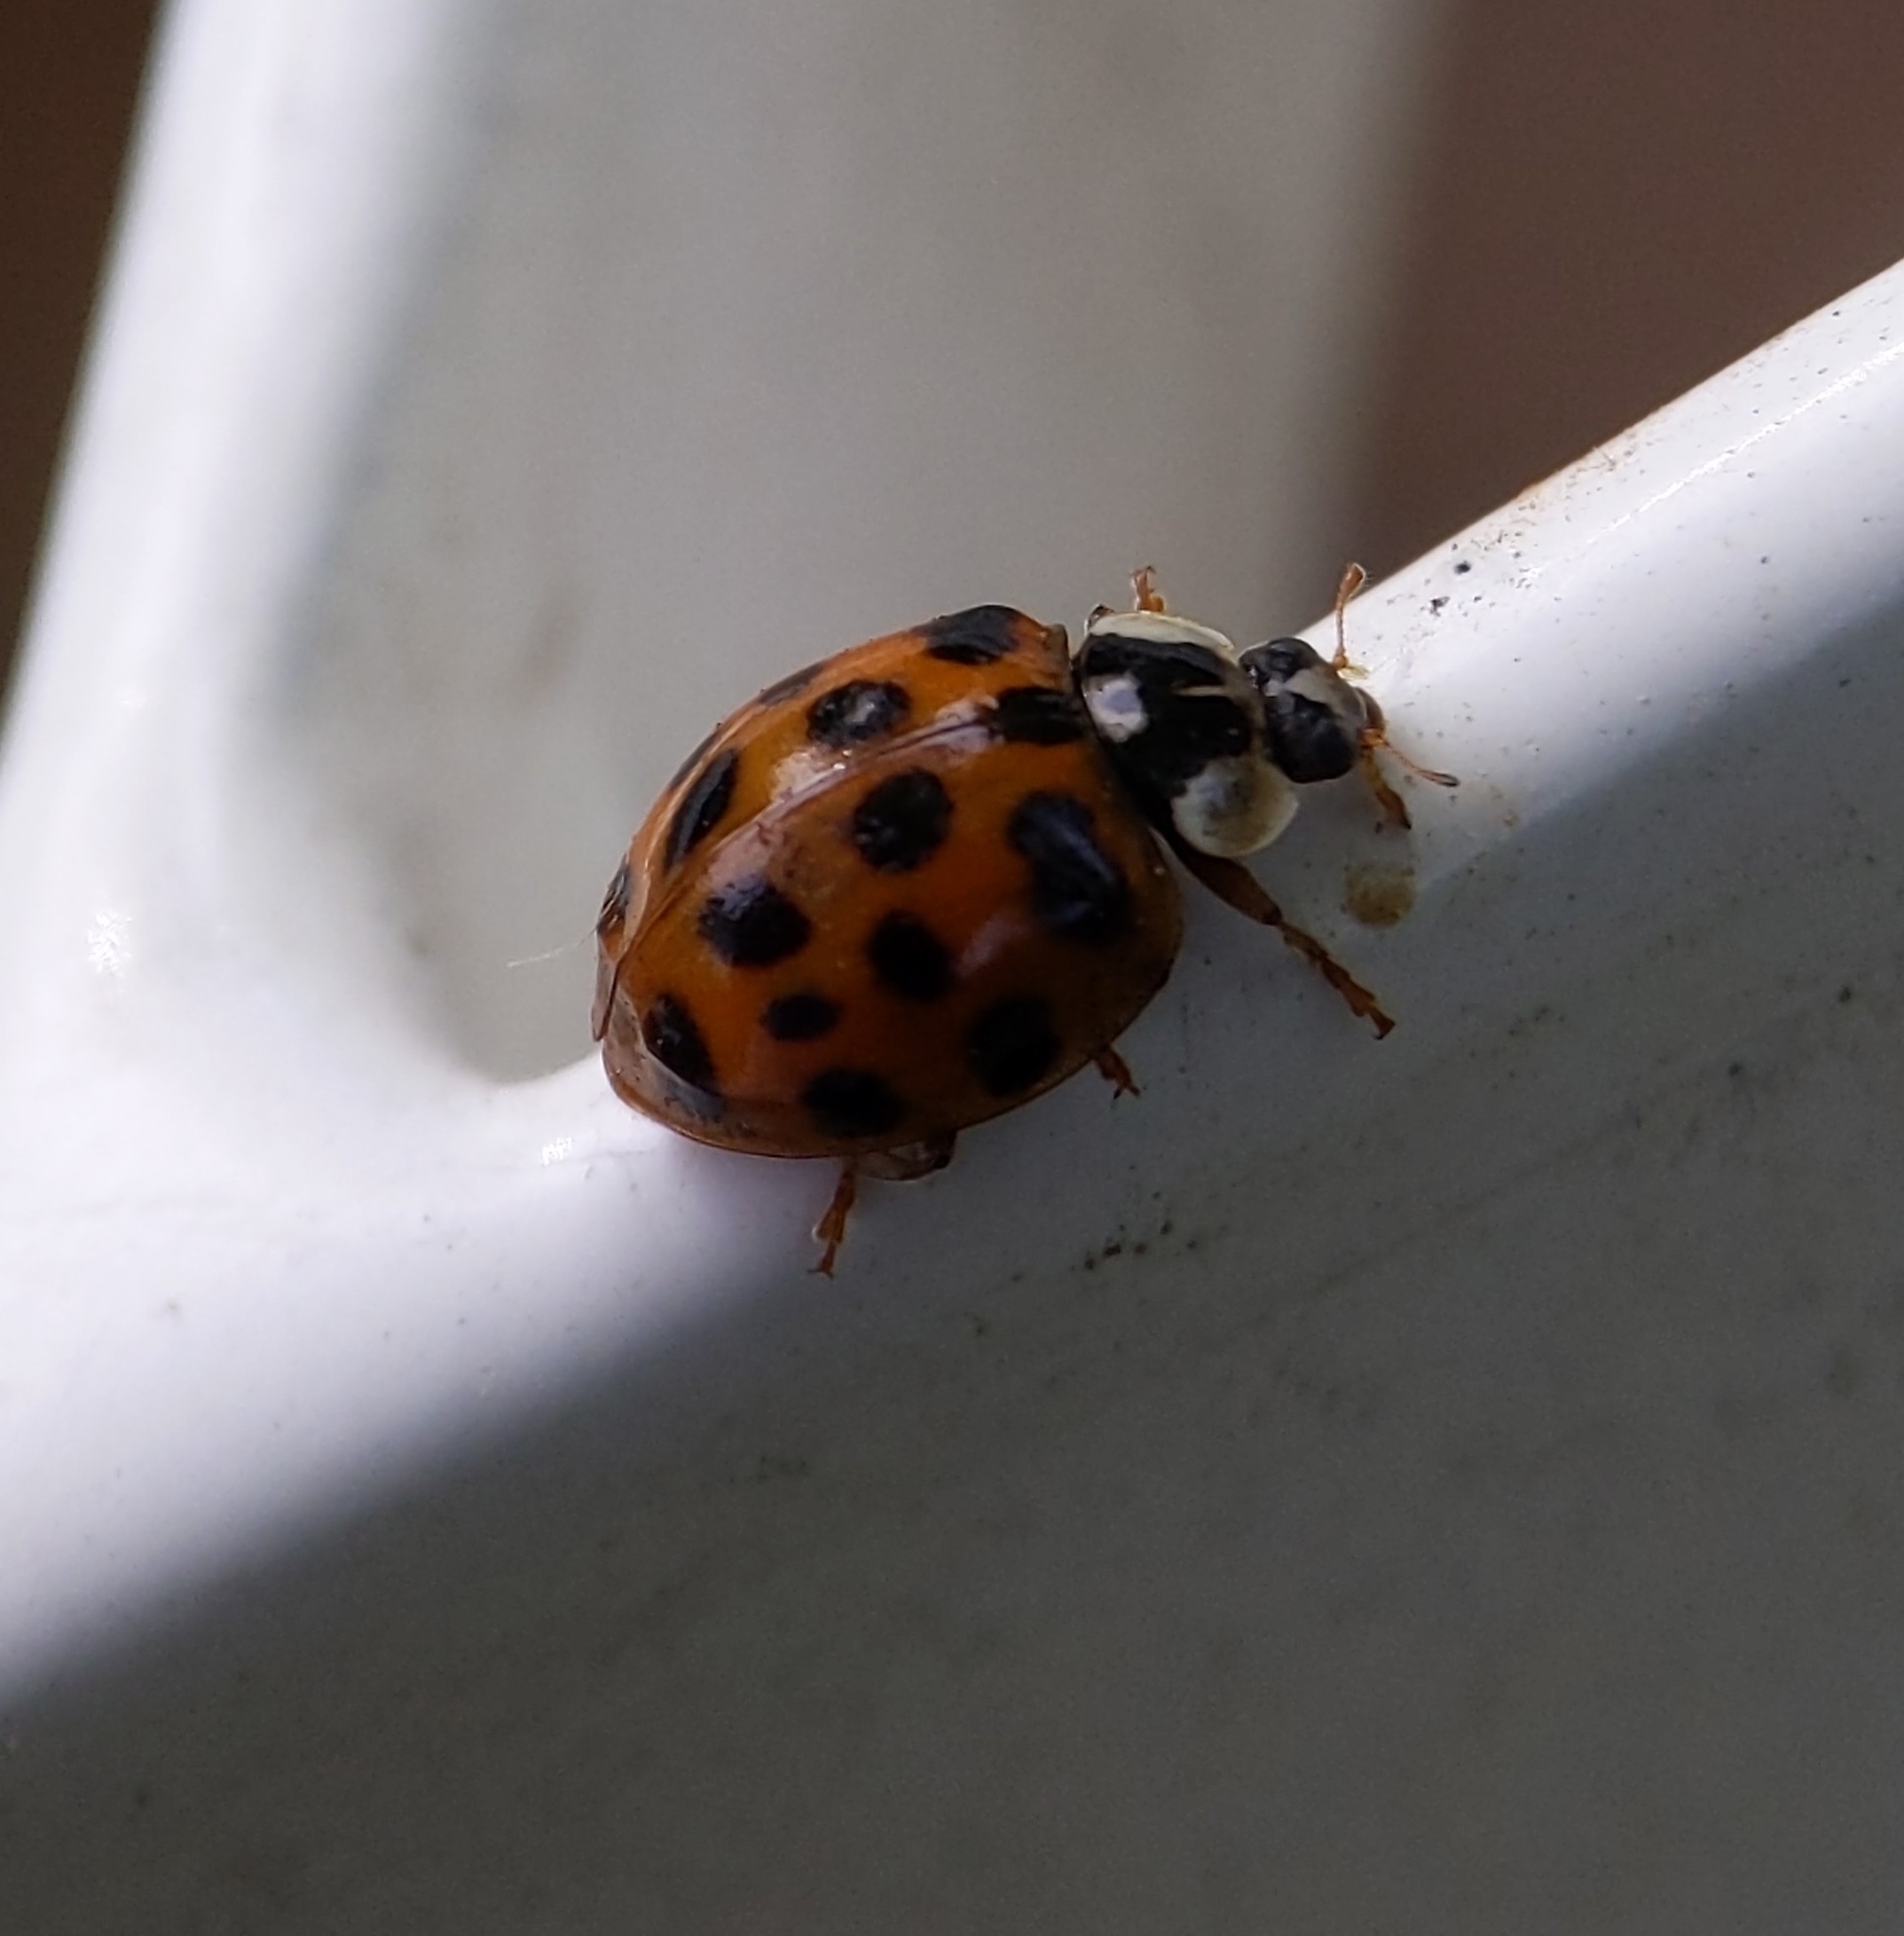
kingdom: Animalia
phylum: Arthropoda
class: Insecta
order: Coleoptera
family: Coccinellidae
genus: Harmonia
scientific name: Harmonia axyridis
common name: Harlequin ladybird
